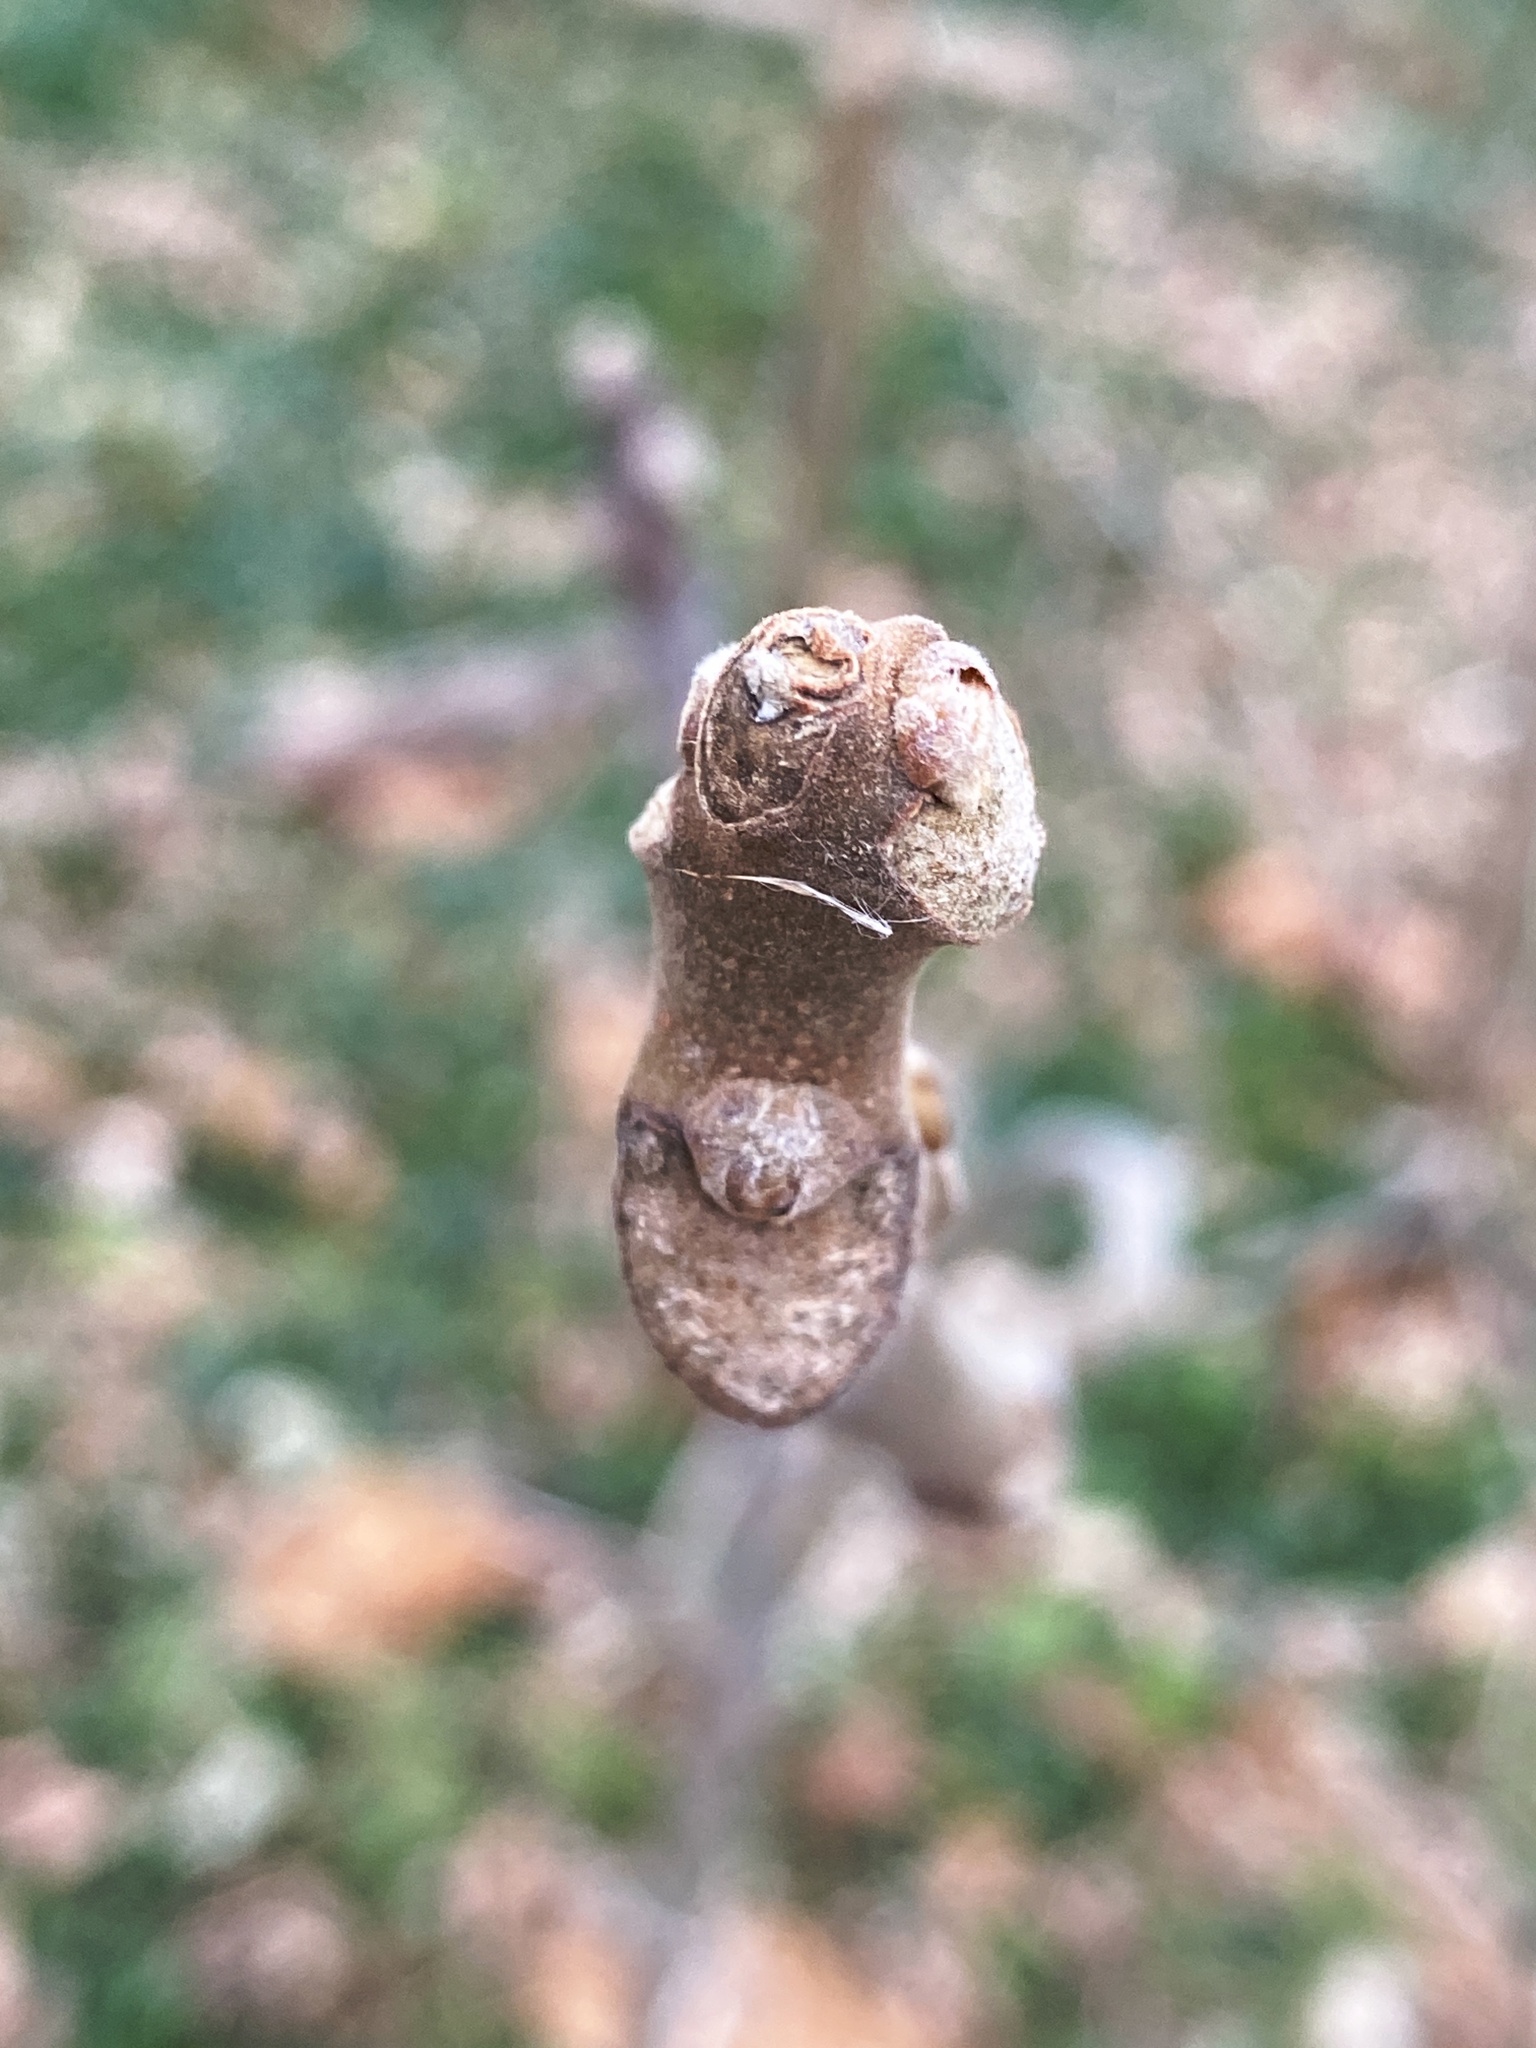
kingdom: Plantae
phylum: Tracheophyta
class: Magnoliopsida
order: Fagales
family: Juglandaceae
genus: Juglans
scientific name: Juglans nigra
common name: Black walnut
